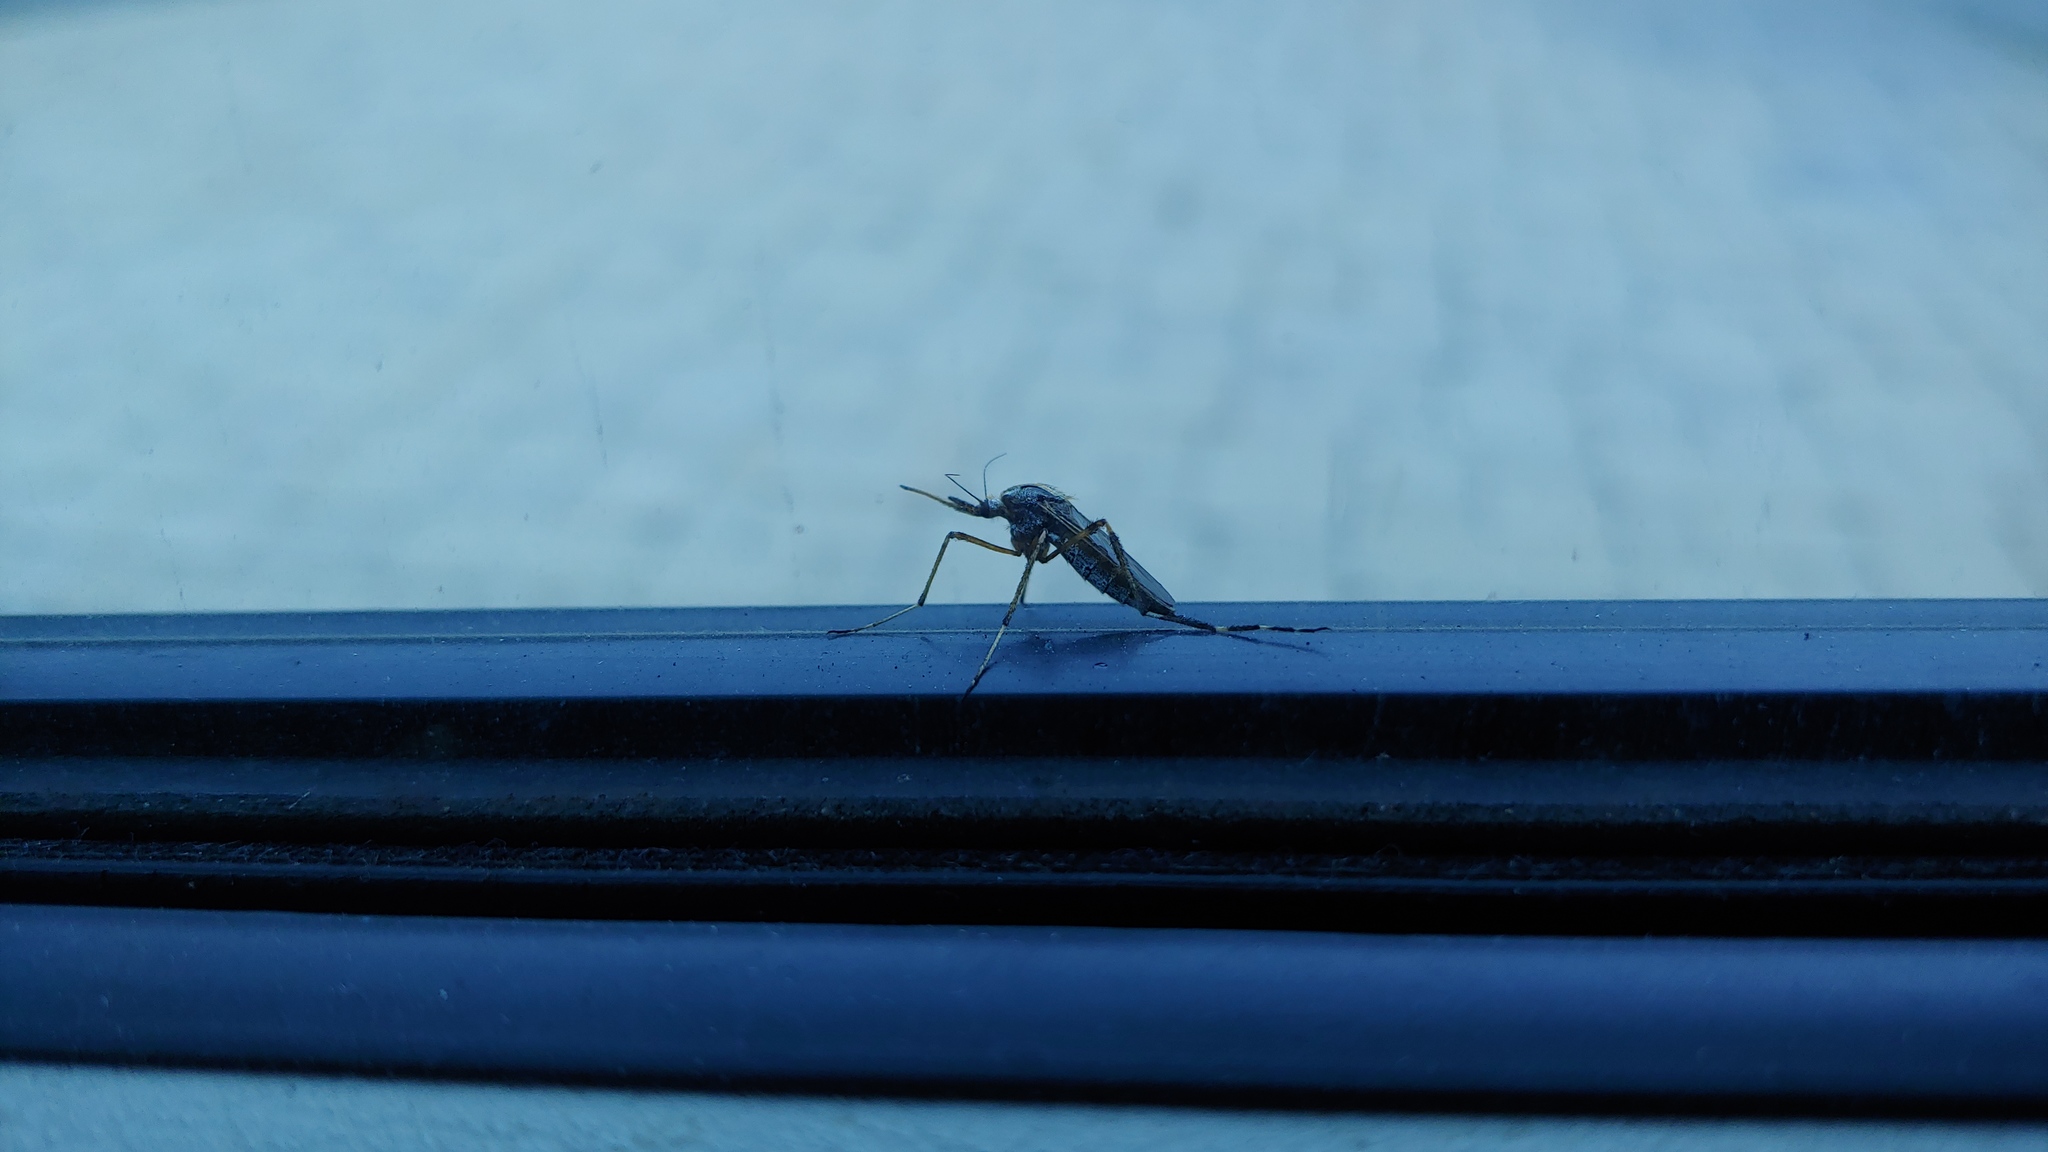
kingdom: Animalia
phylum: Arthropoda
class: Insecta
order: Diptera
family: Culicidae
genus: Psorophora
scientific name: Psorophora ciliata
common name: Gallinipper
